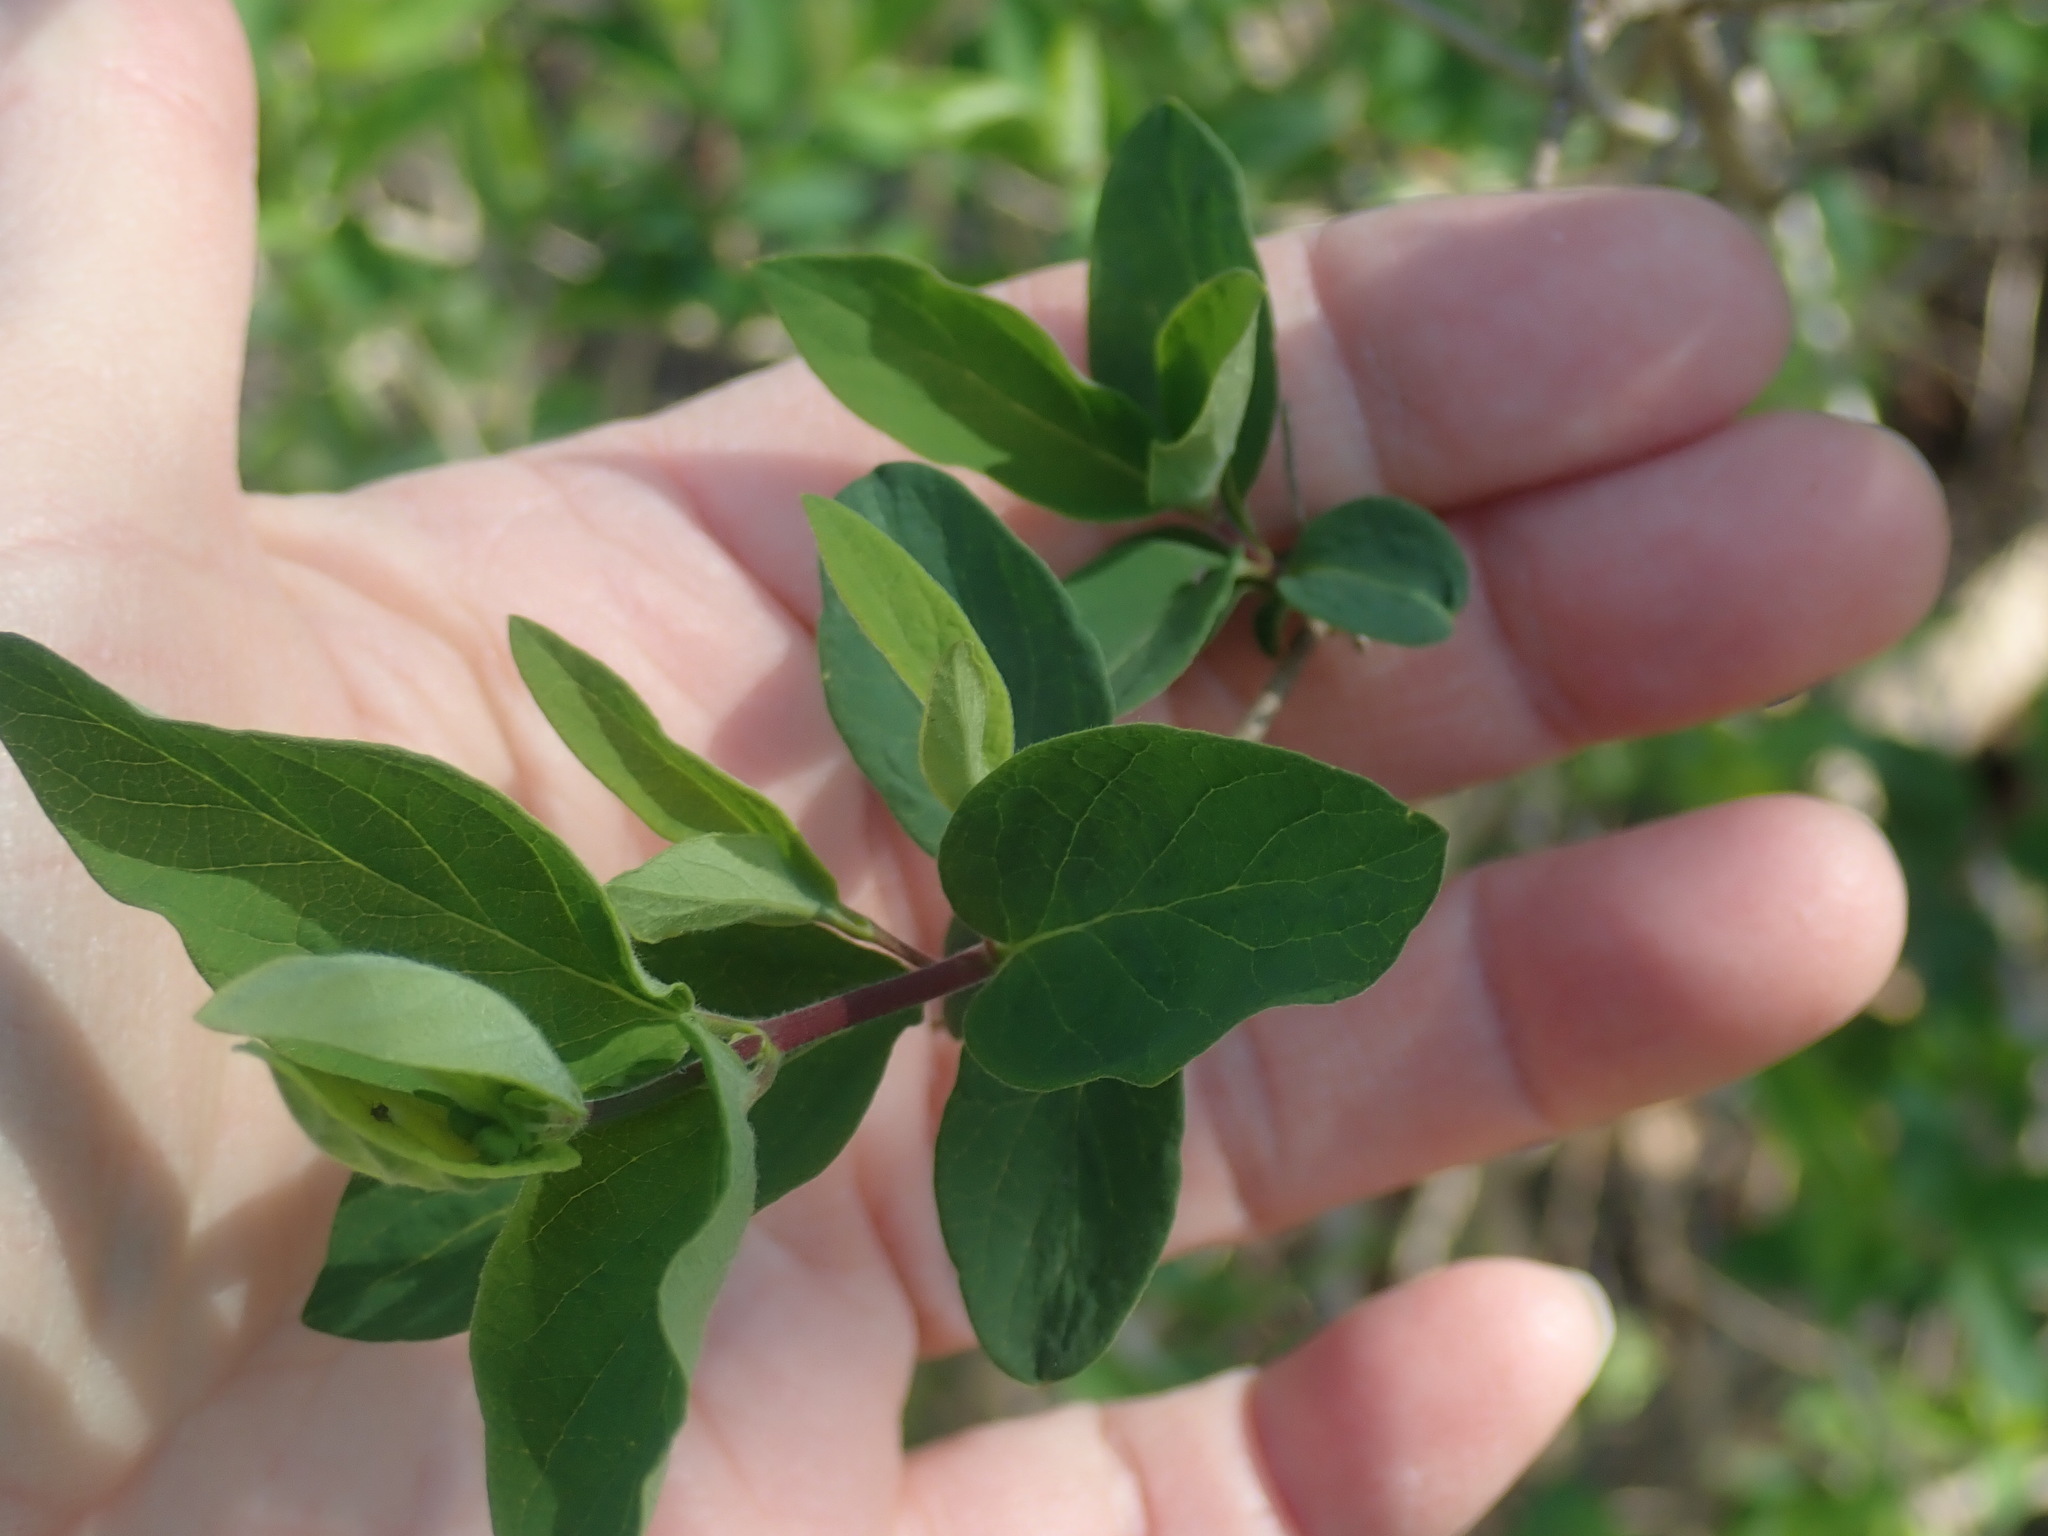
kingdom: Plantae
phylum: Tracheophyta
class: Magnoliopsida
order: Dipsacales
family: Caprifoliaceae
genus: Lonicera
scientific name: Lonicera
